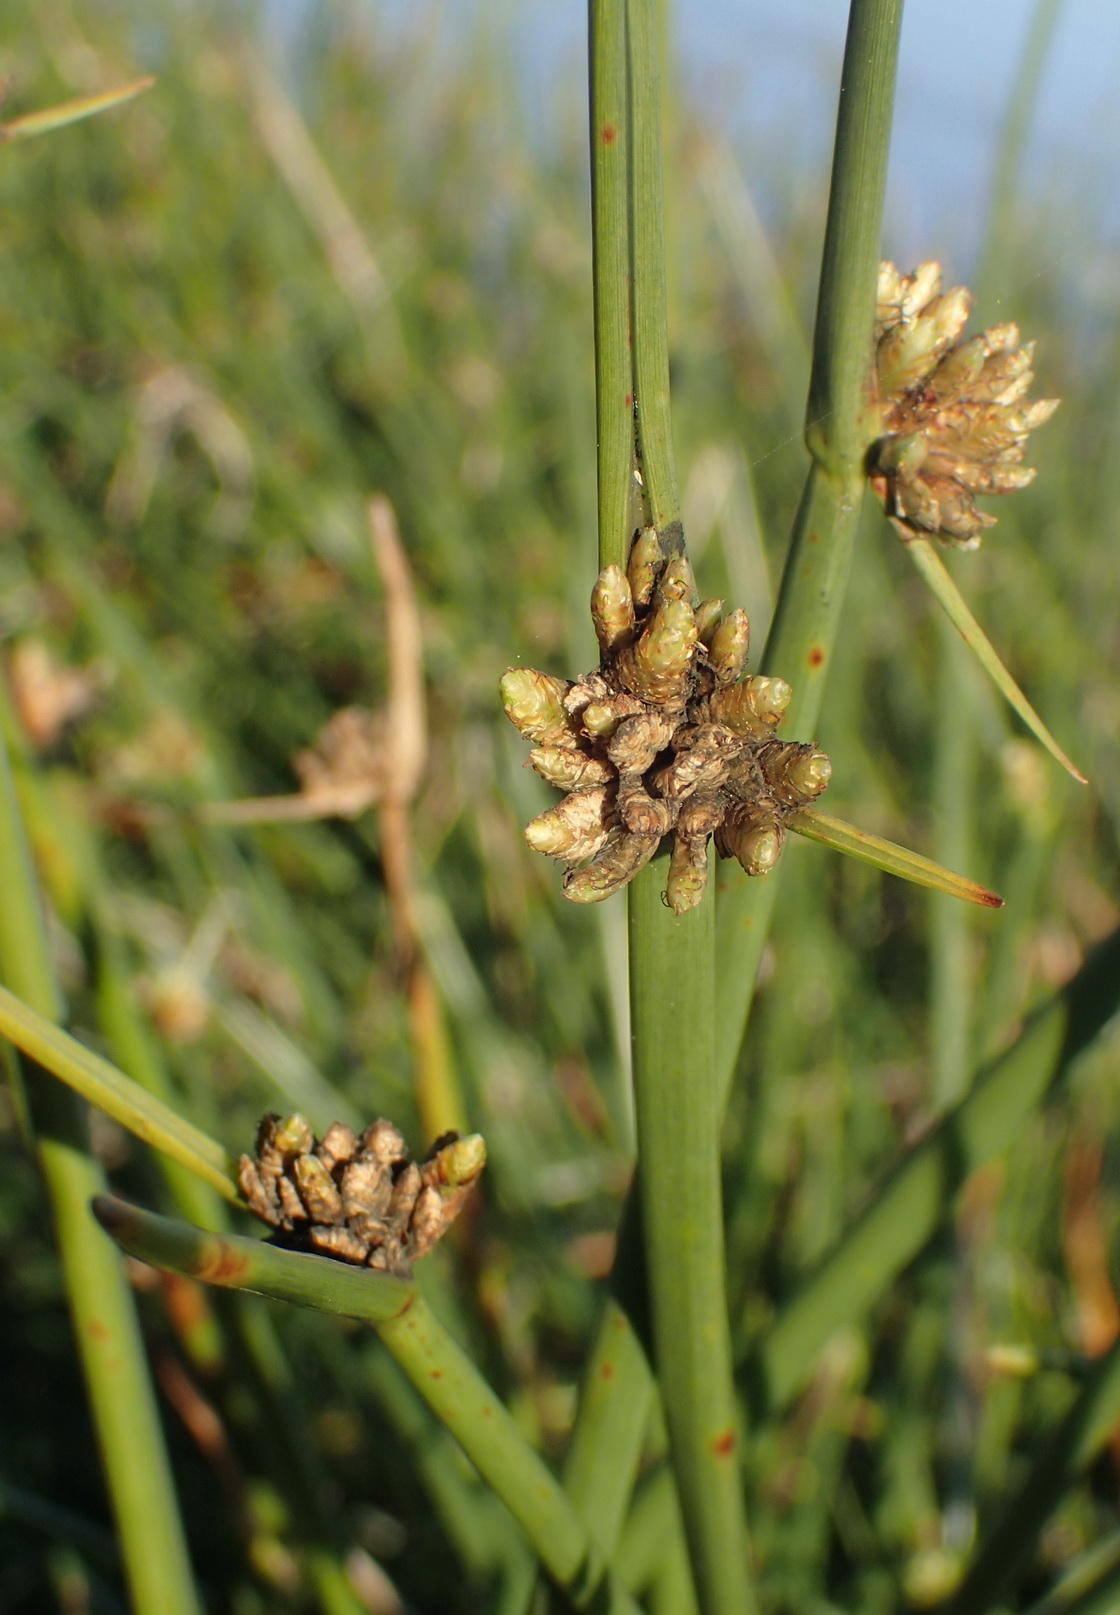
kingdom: Plantae
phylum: Tracheophyta
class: Liliopsida
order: Poales
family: Cyperaceae
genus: Schoenoplectus
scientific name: Schoenoplectus scirpoides
